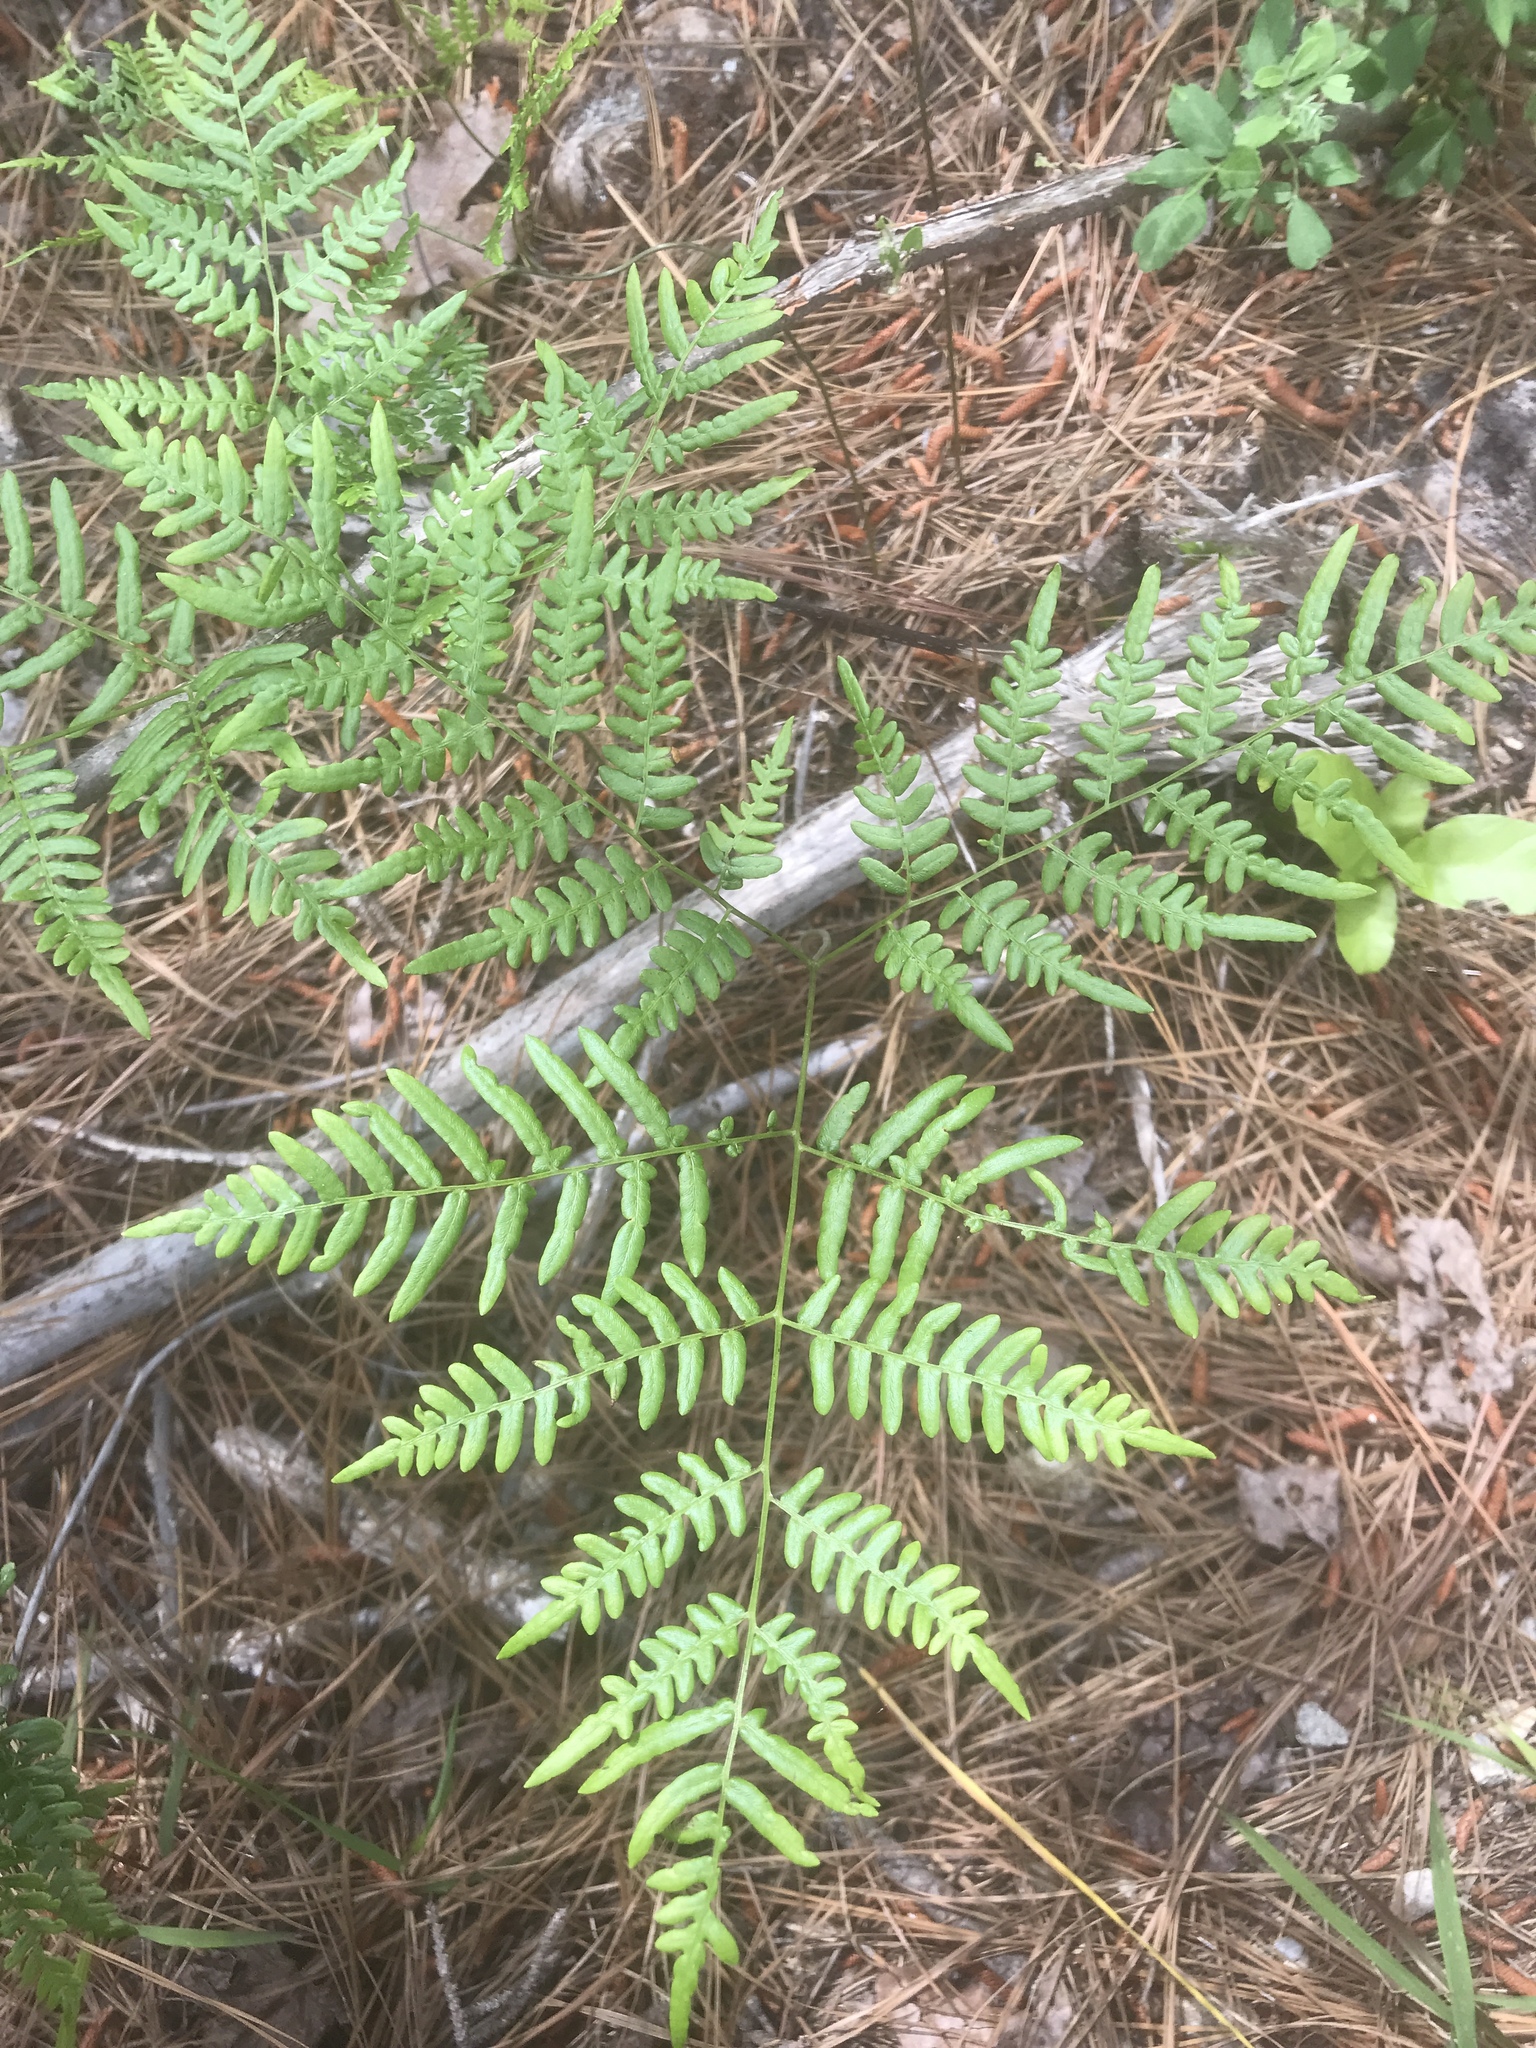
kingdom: Plantae
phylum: Tracheophyta
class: Polypodiopsida
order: Polypodiales
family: Dennstaedtiaceae
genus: Pteridium
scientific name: Pteridium
